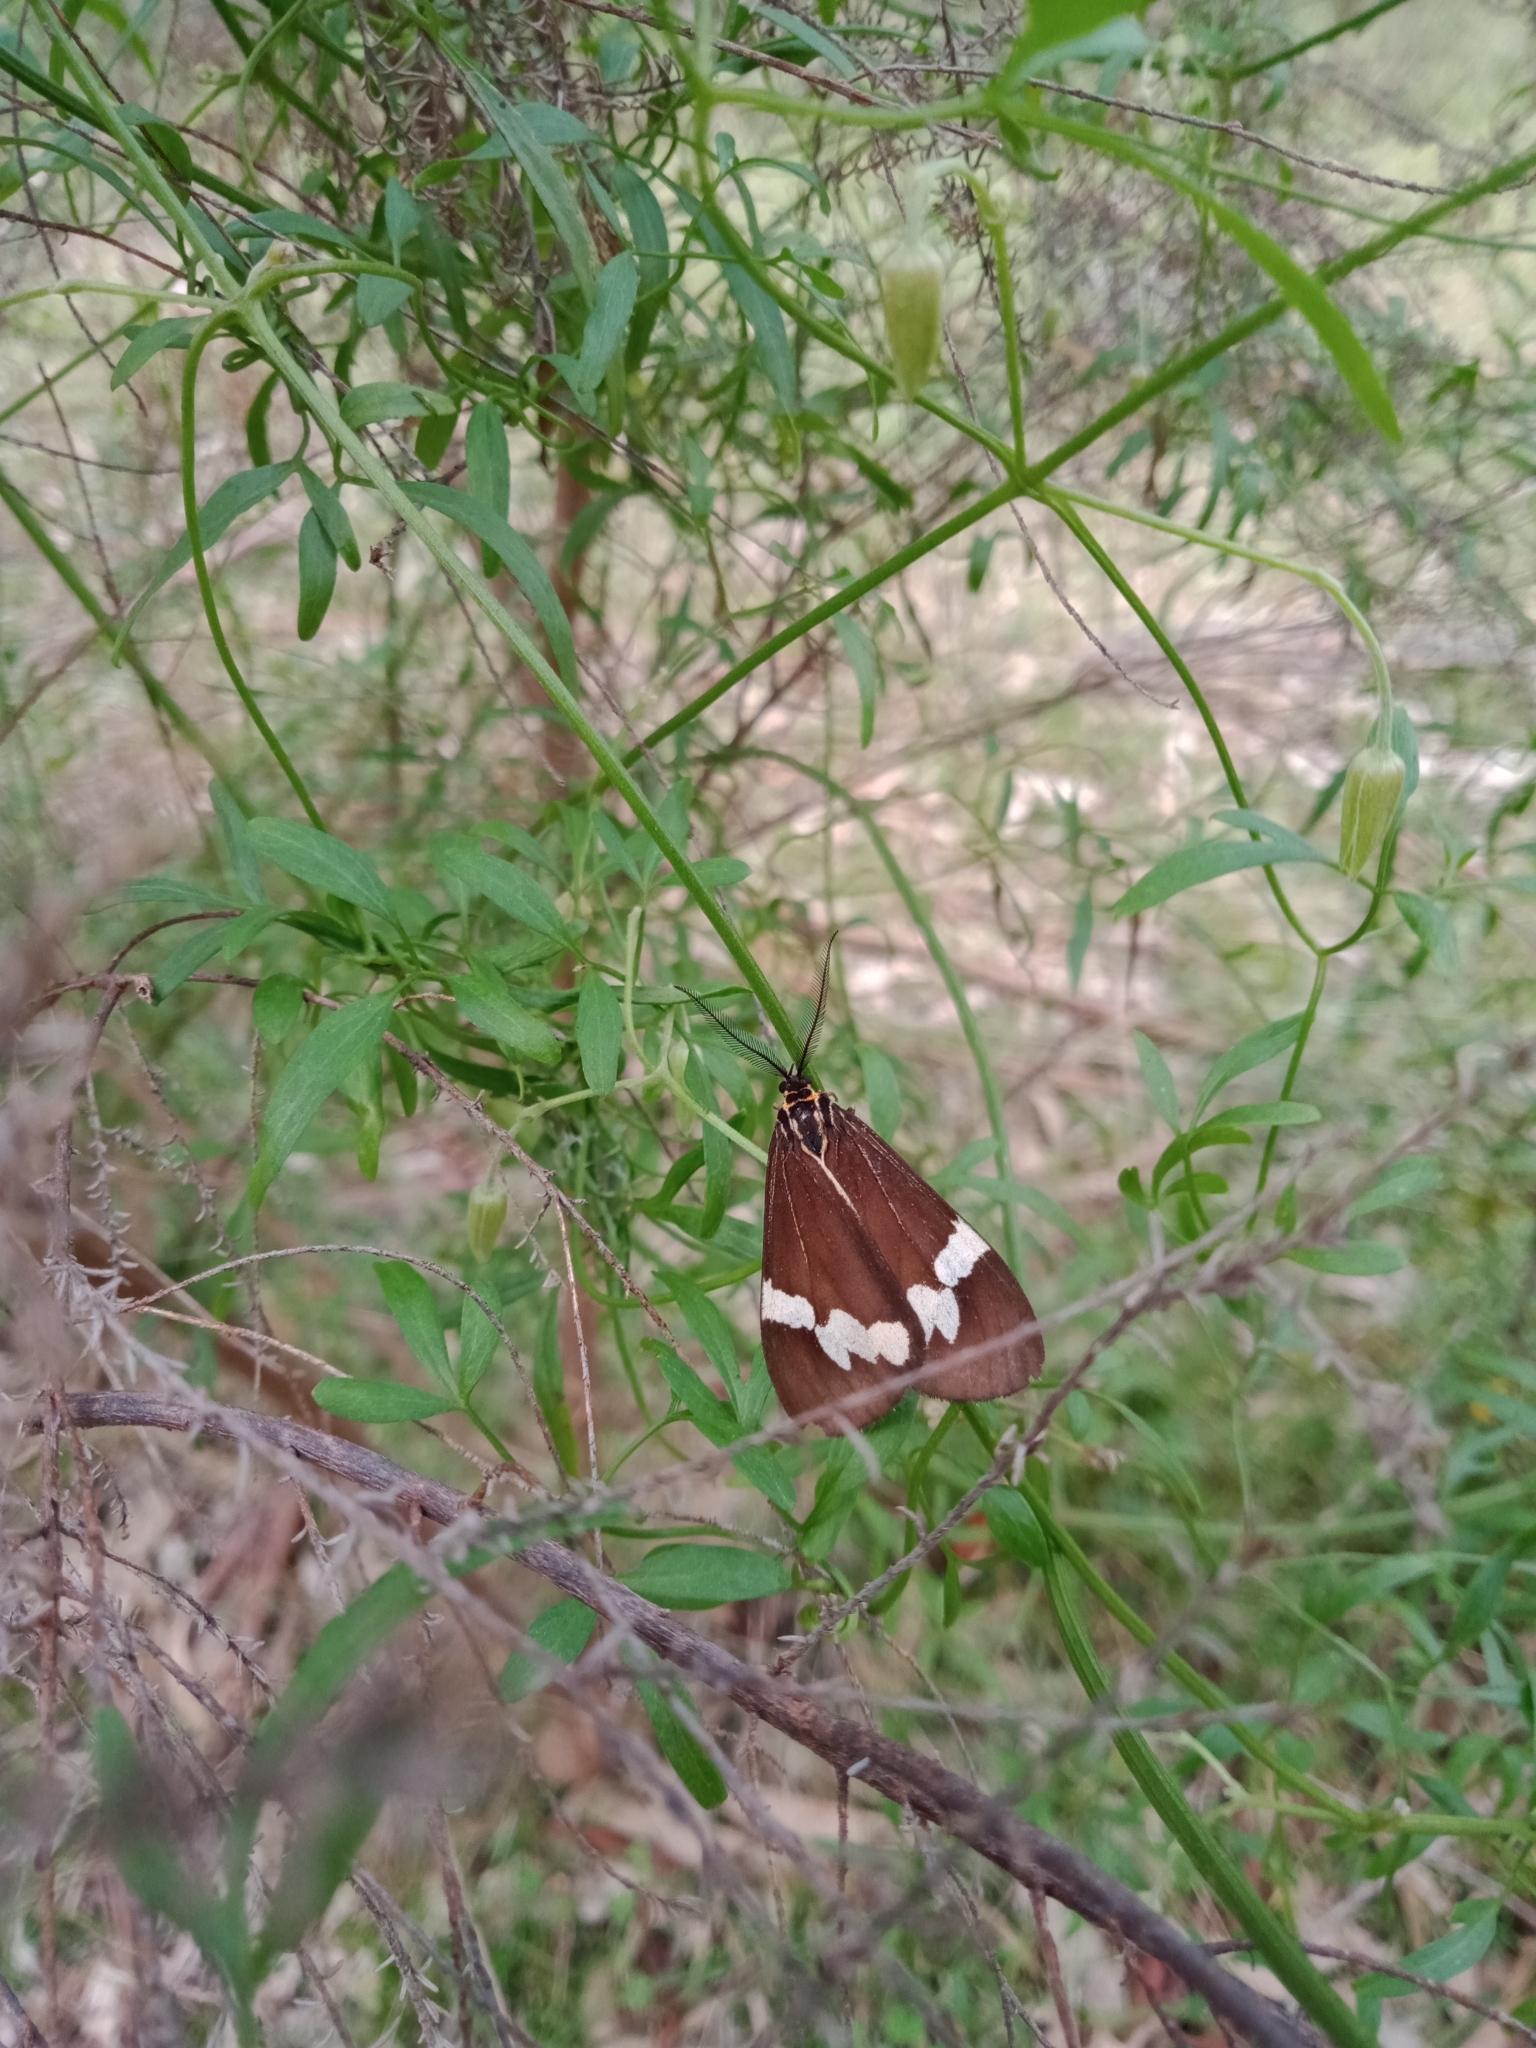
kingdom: Animalia
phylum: Arthropoda
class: Insecta
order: Lepidoptera
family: Erebidae
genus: Nyctemera
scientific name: Nyctemera amicus
